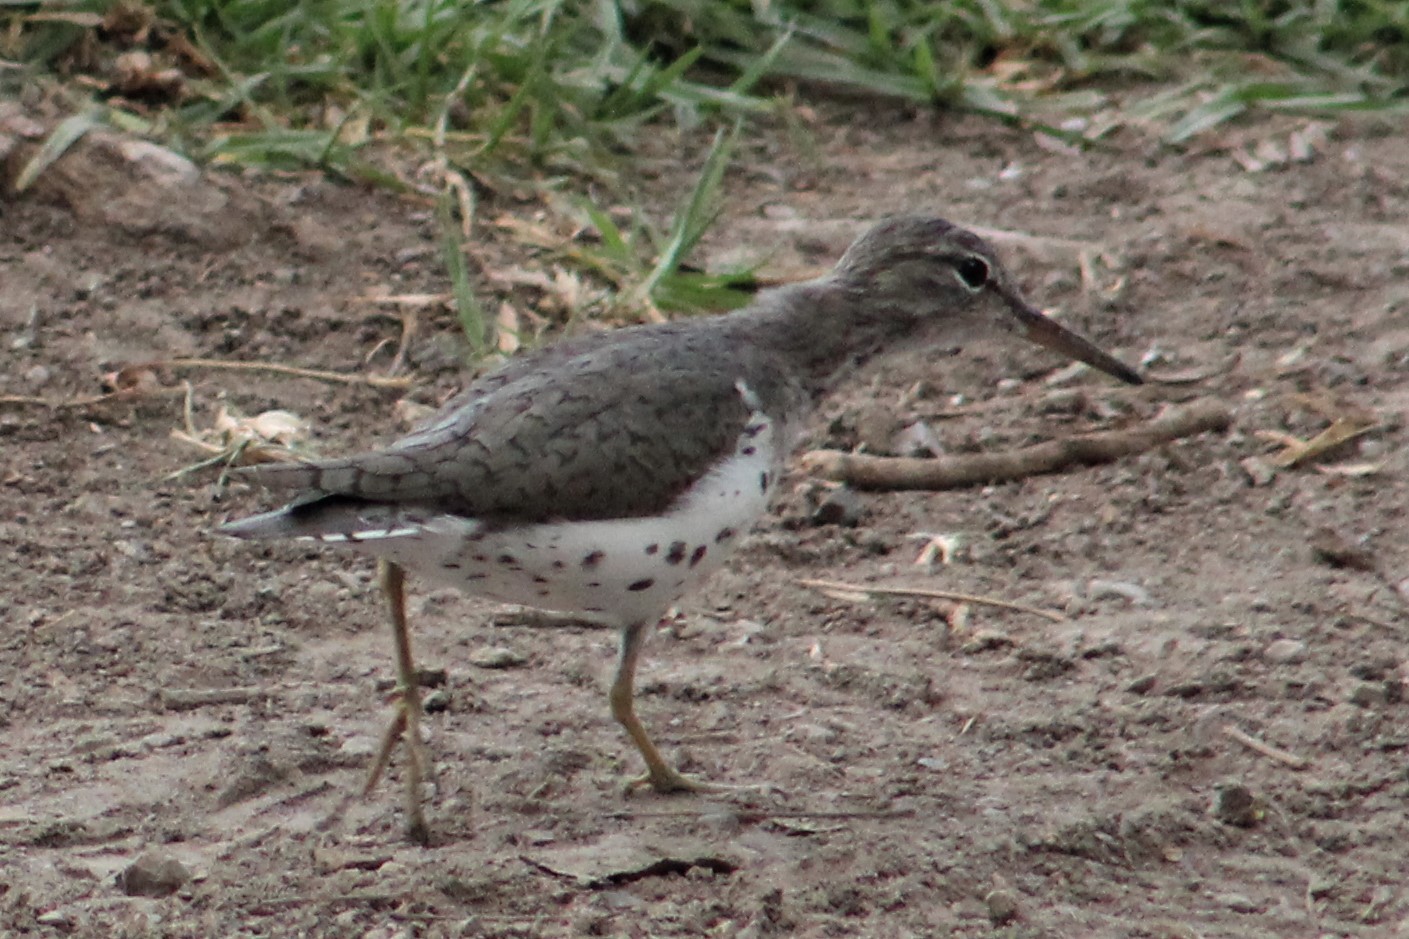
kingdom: Animalia
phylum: Chordata
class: Aves
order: Charadriiformes
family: Scolopacidae
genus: Actitis
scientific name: Actitis macularius
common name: Spotted sandpiper
